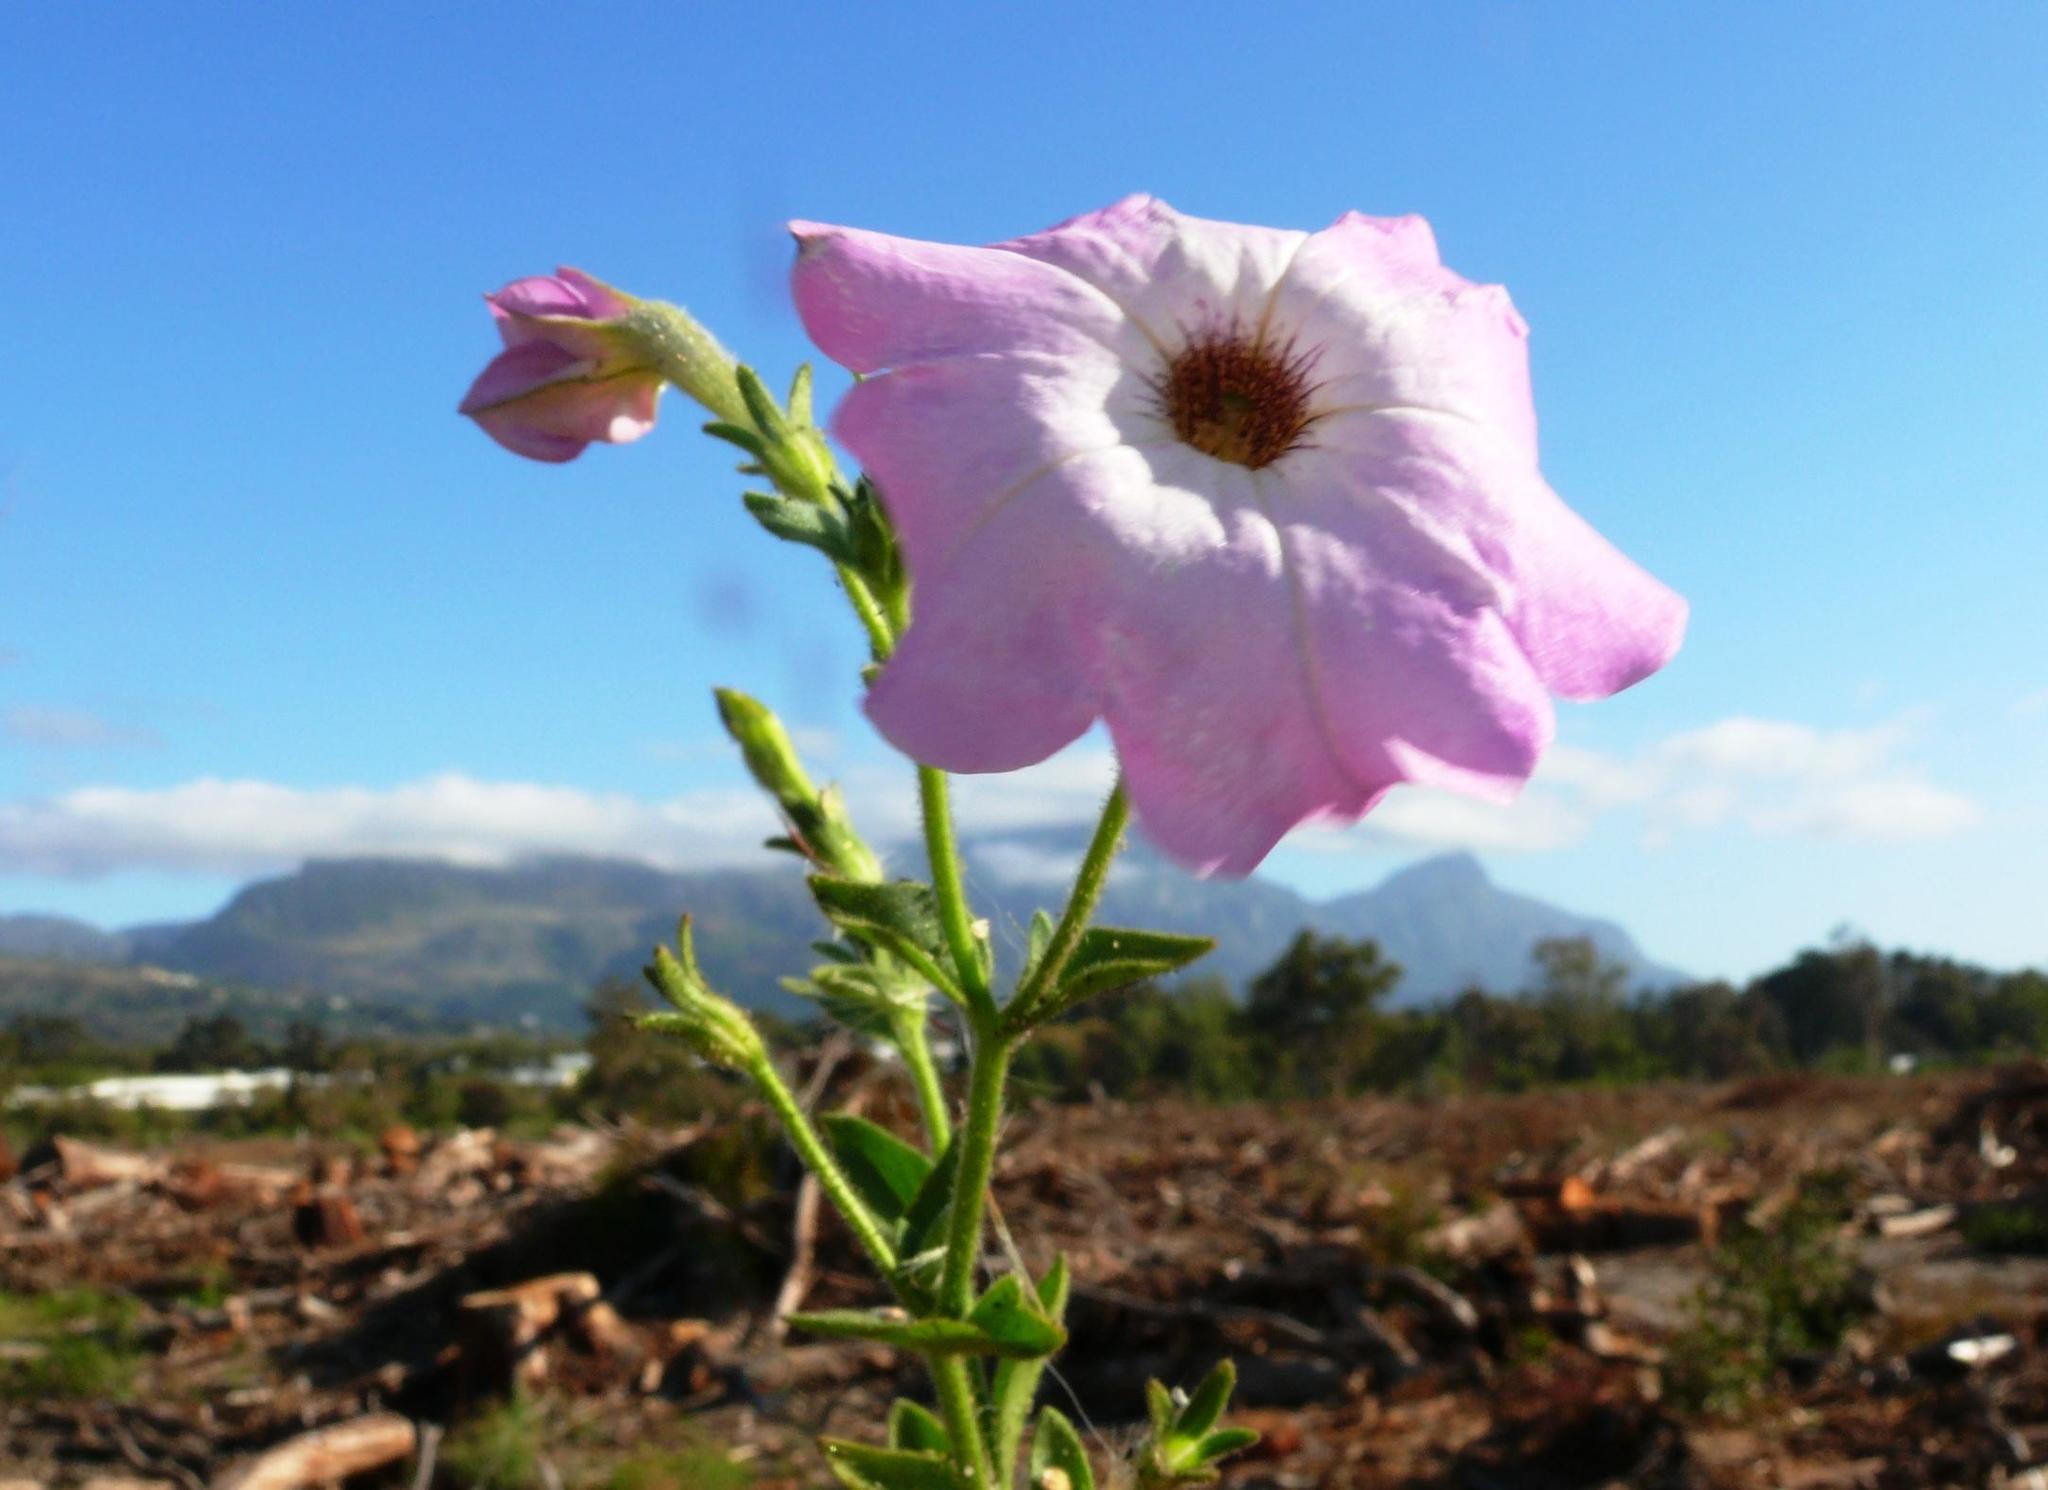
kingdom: Plantae
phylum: Tracheophyta
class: Magnoliopsida
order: Solanales
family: Solanaceae
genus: Petunia
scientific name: Petunia atkinsiana
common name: Petunia
